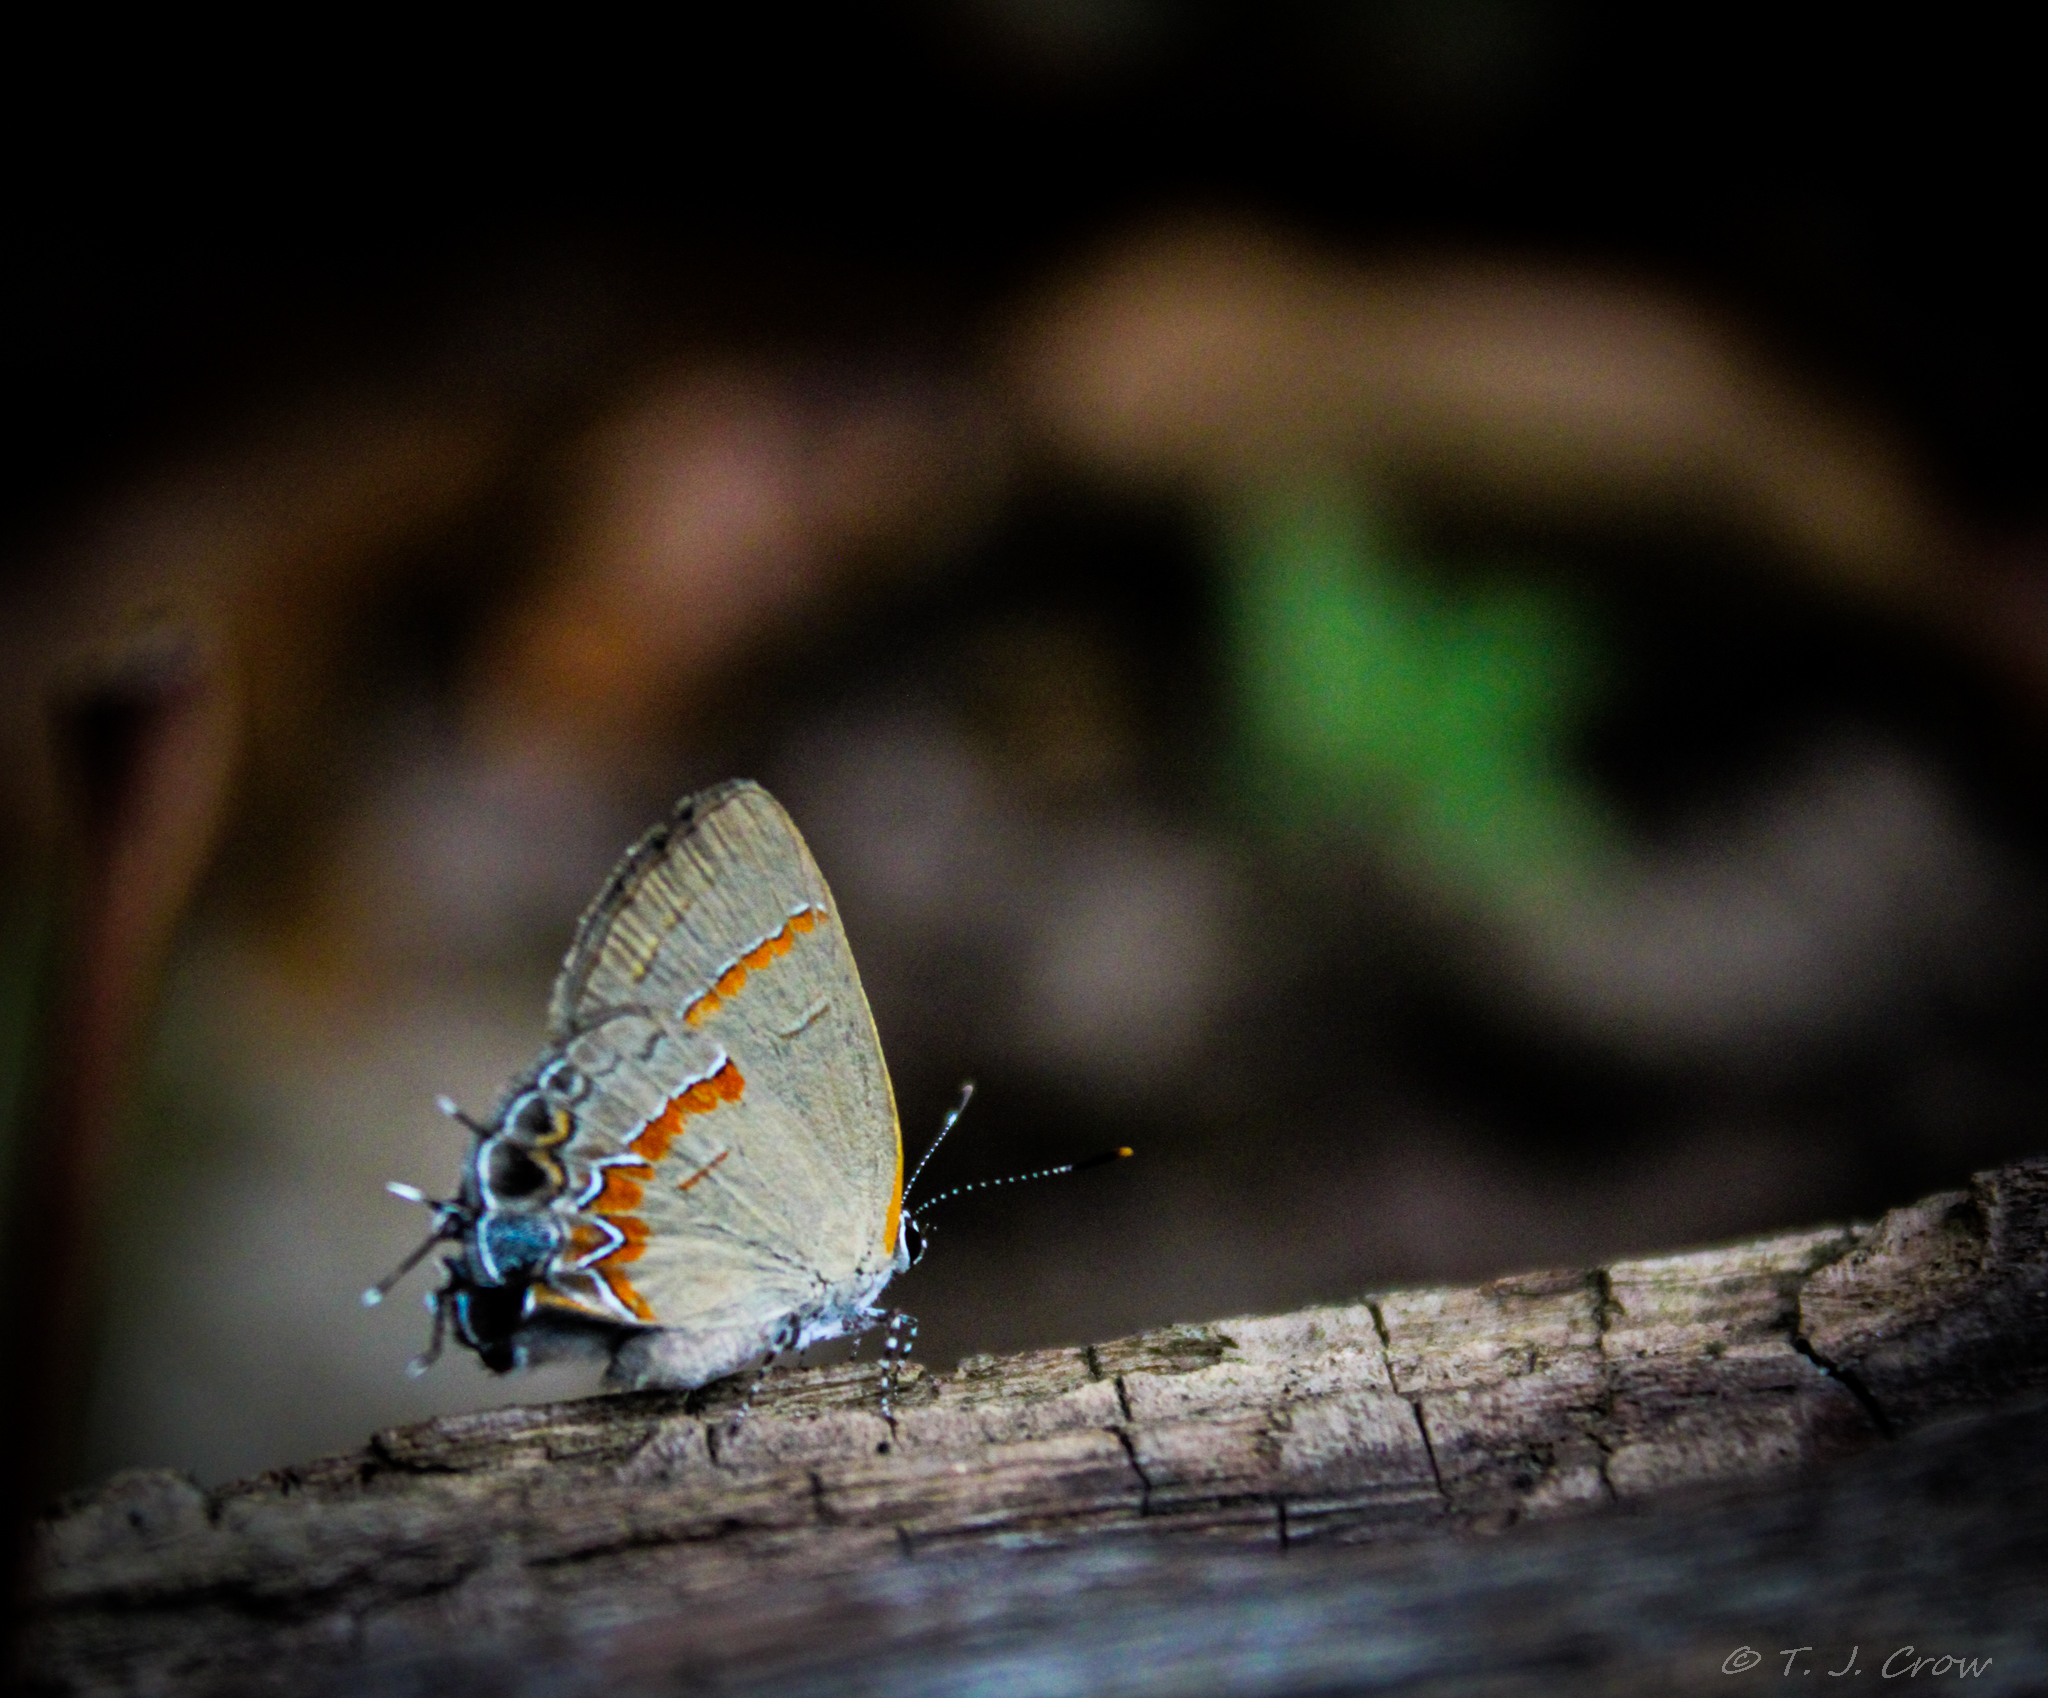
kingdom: Animalia
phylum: Arthropoda
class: Insecta
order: Lepidoptera
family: Lycaenidae
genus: Calycopis
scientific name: Calycopis cecrops
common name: Red-banded hairstreak
